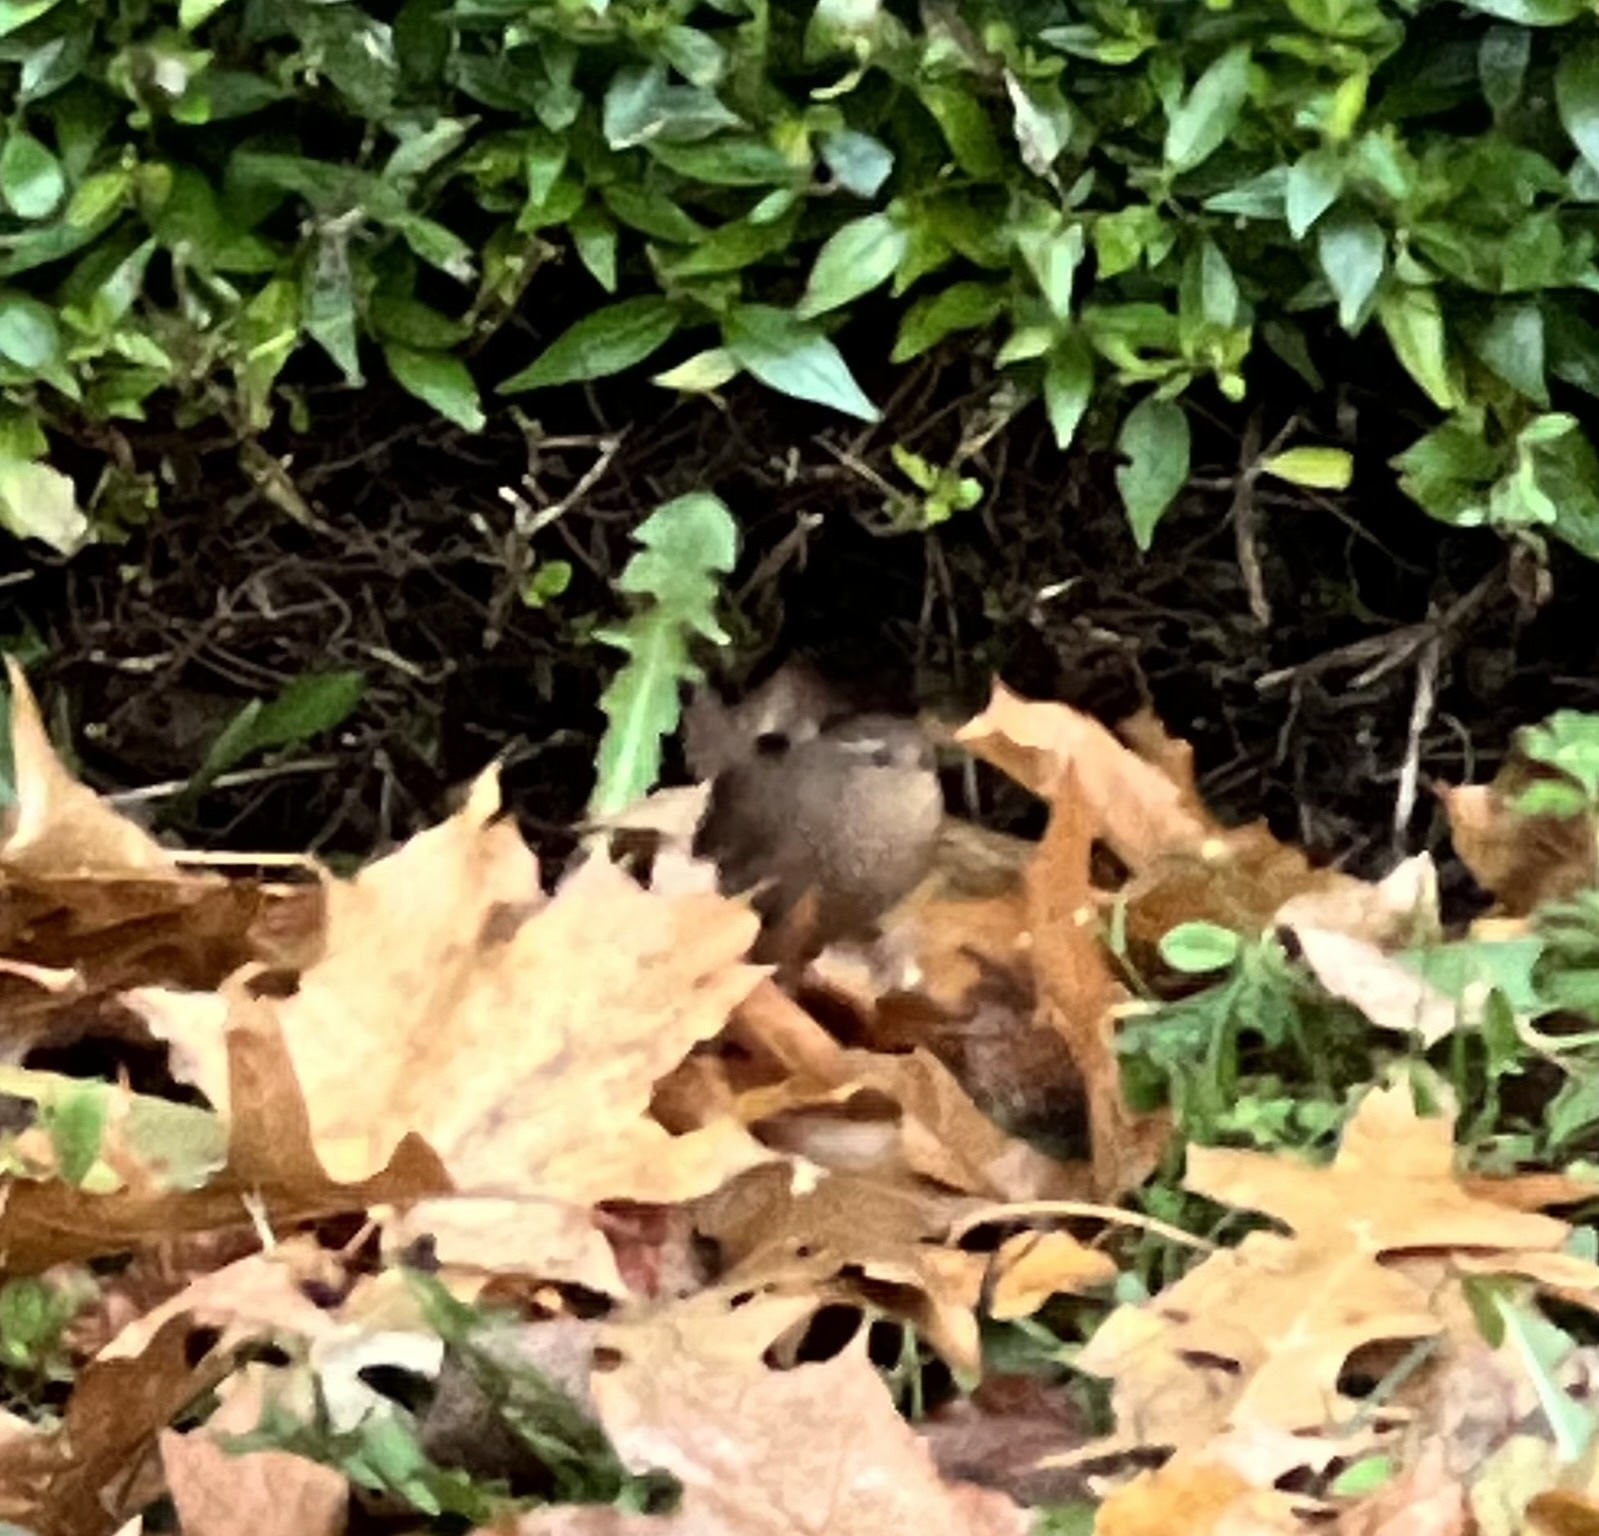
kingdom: Animalia
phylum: Chordata
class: Aves
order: Passeriformes
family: Troglodytidae
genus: Troglodytes
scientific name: Troglodytes pacificus
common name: Pacific wren
